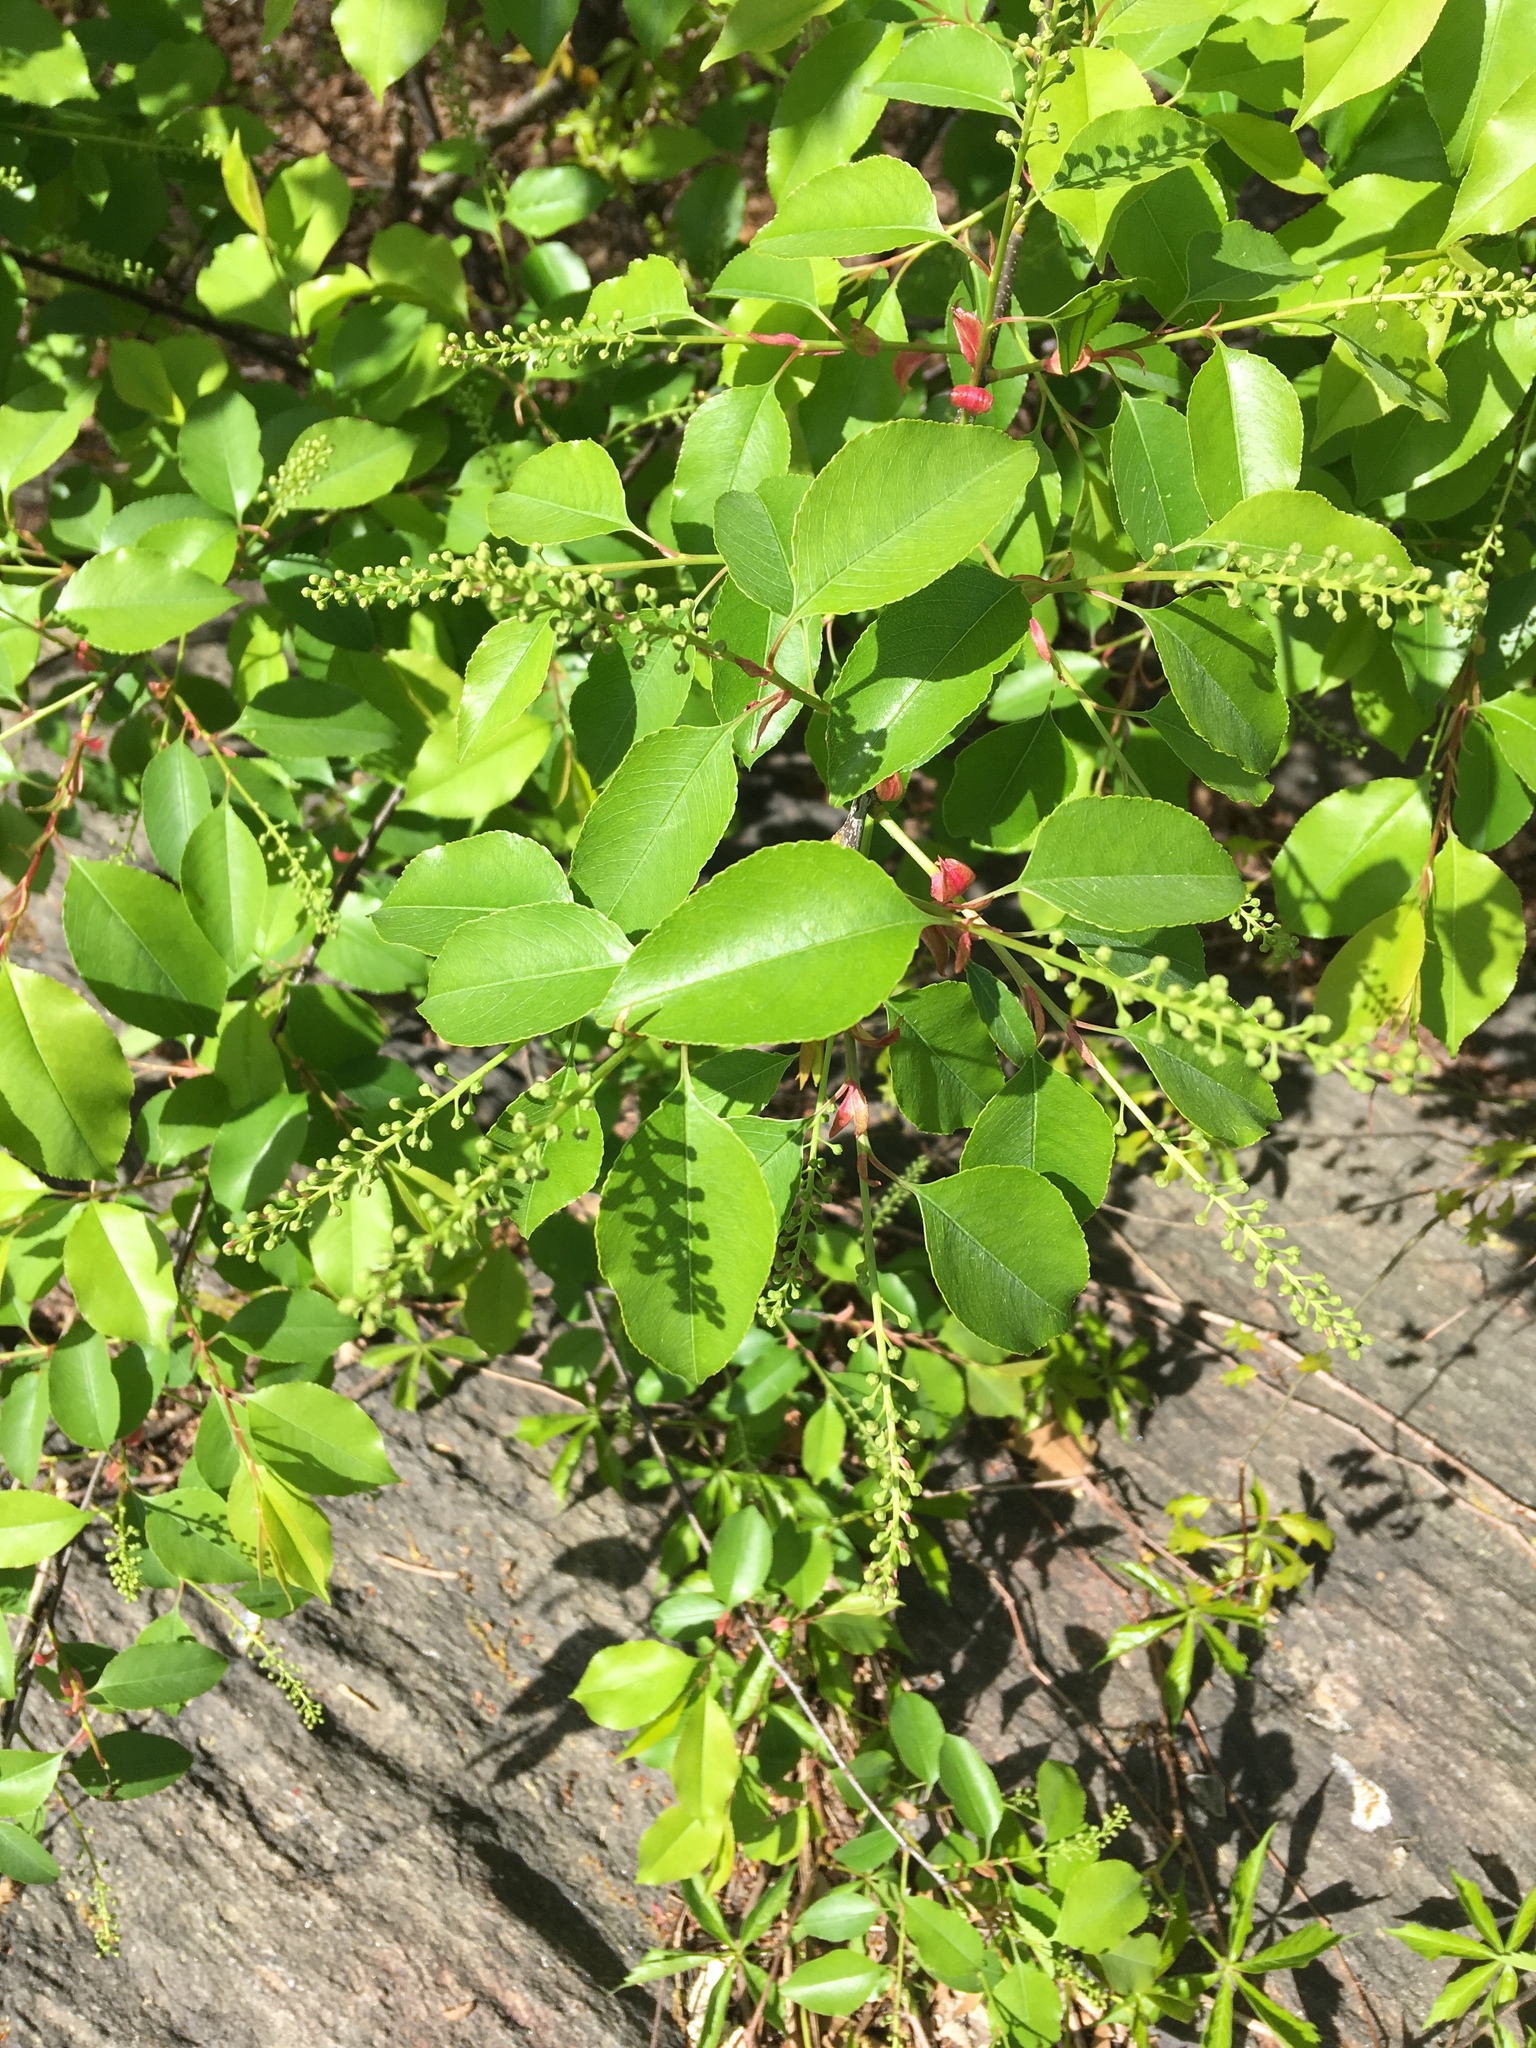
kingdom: Plantae
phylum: Tracheophyta
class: Magnoliopsida
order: Rosales
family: Rosaceae
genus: Prunus
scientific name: Prunus serotina
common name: Black cherry
